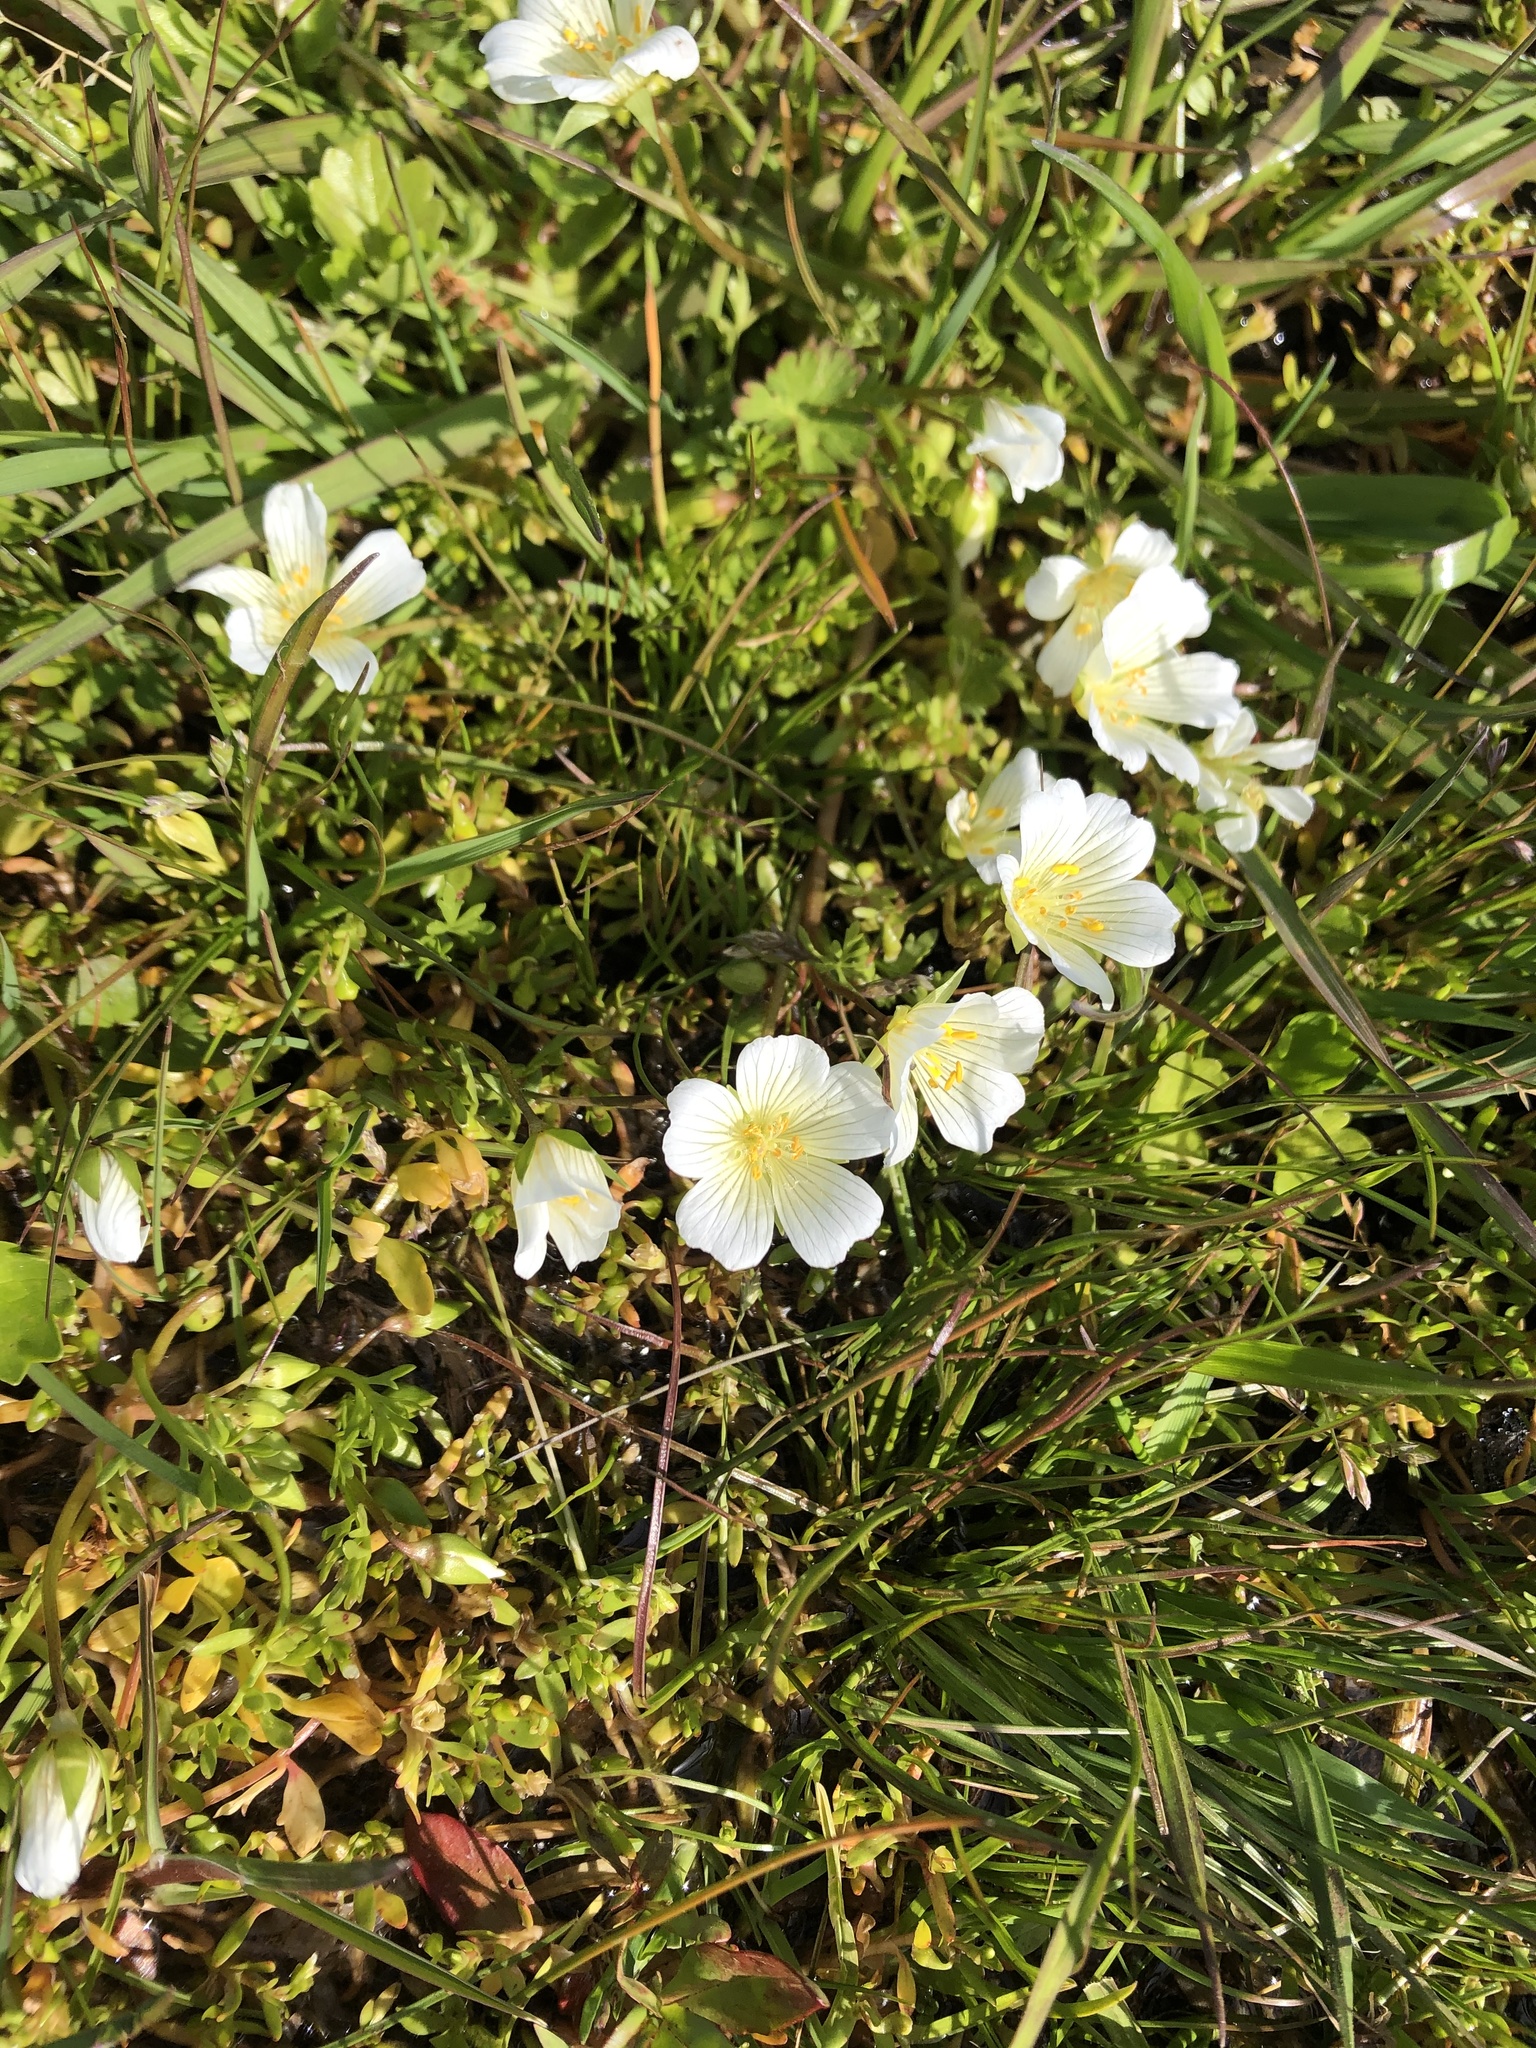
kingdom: Plantae
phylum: Tracheophyta
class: Magnoliopsida
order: Brassicales
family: Limnanthaceae
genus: Limnanthes
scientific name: Limnanthes douglasii
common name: Meadow-foam
